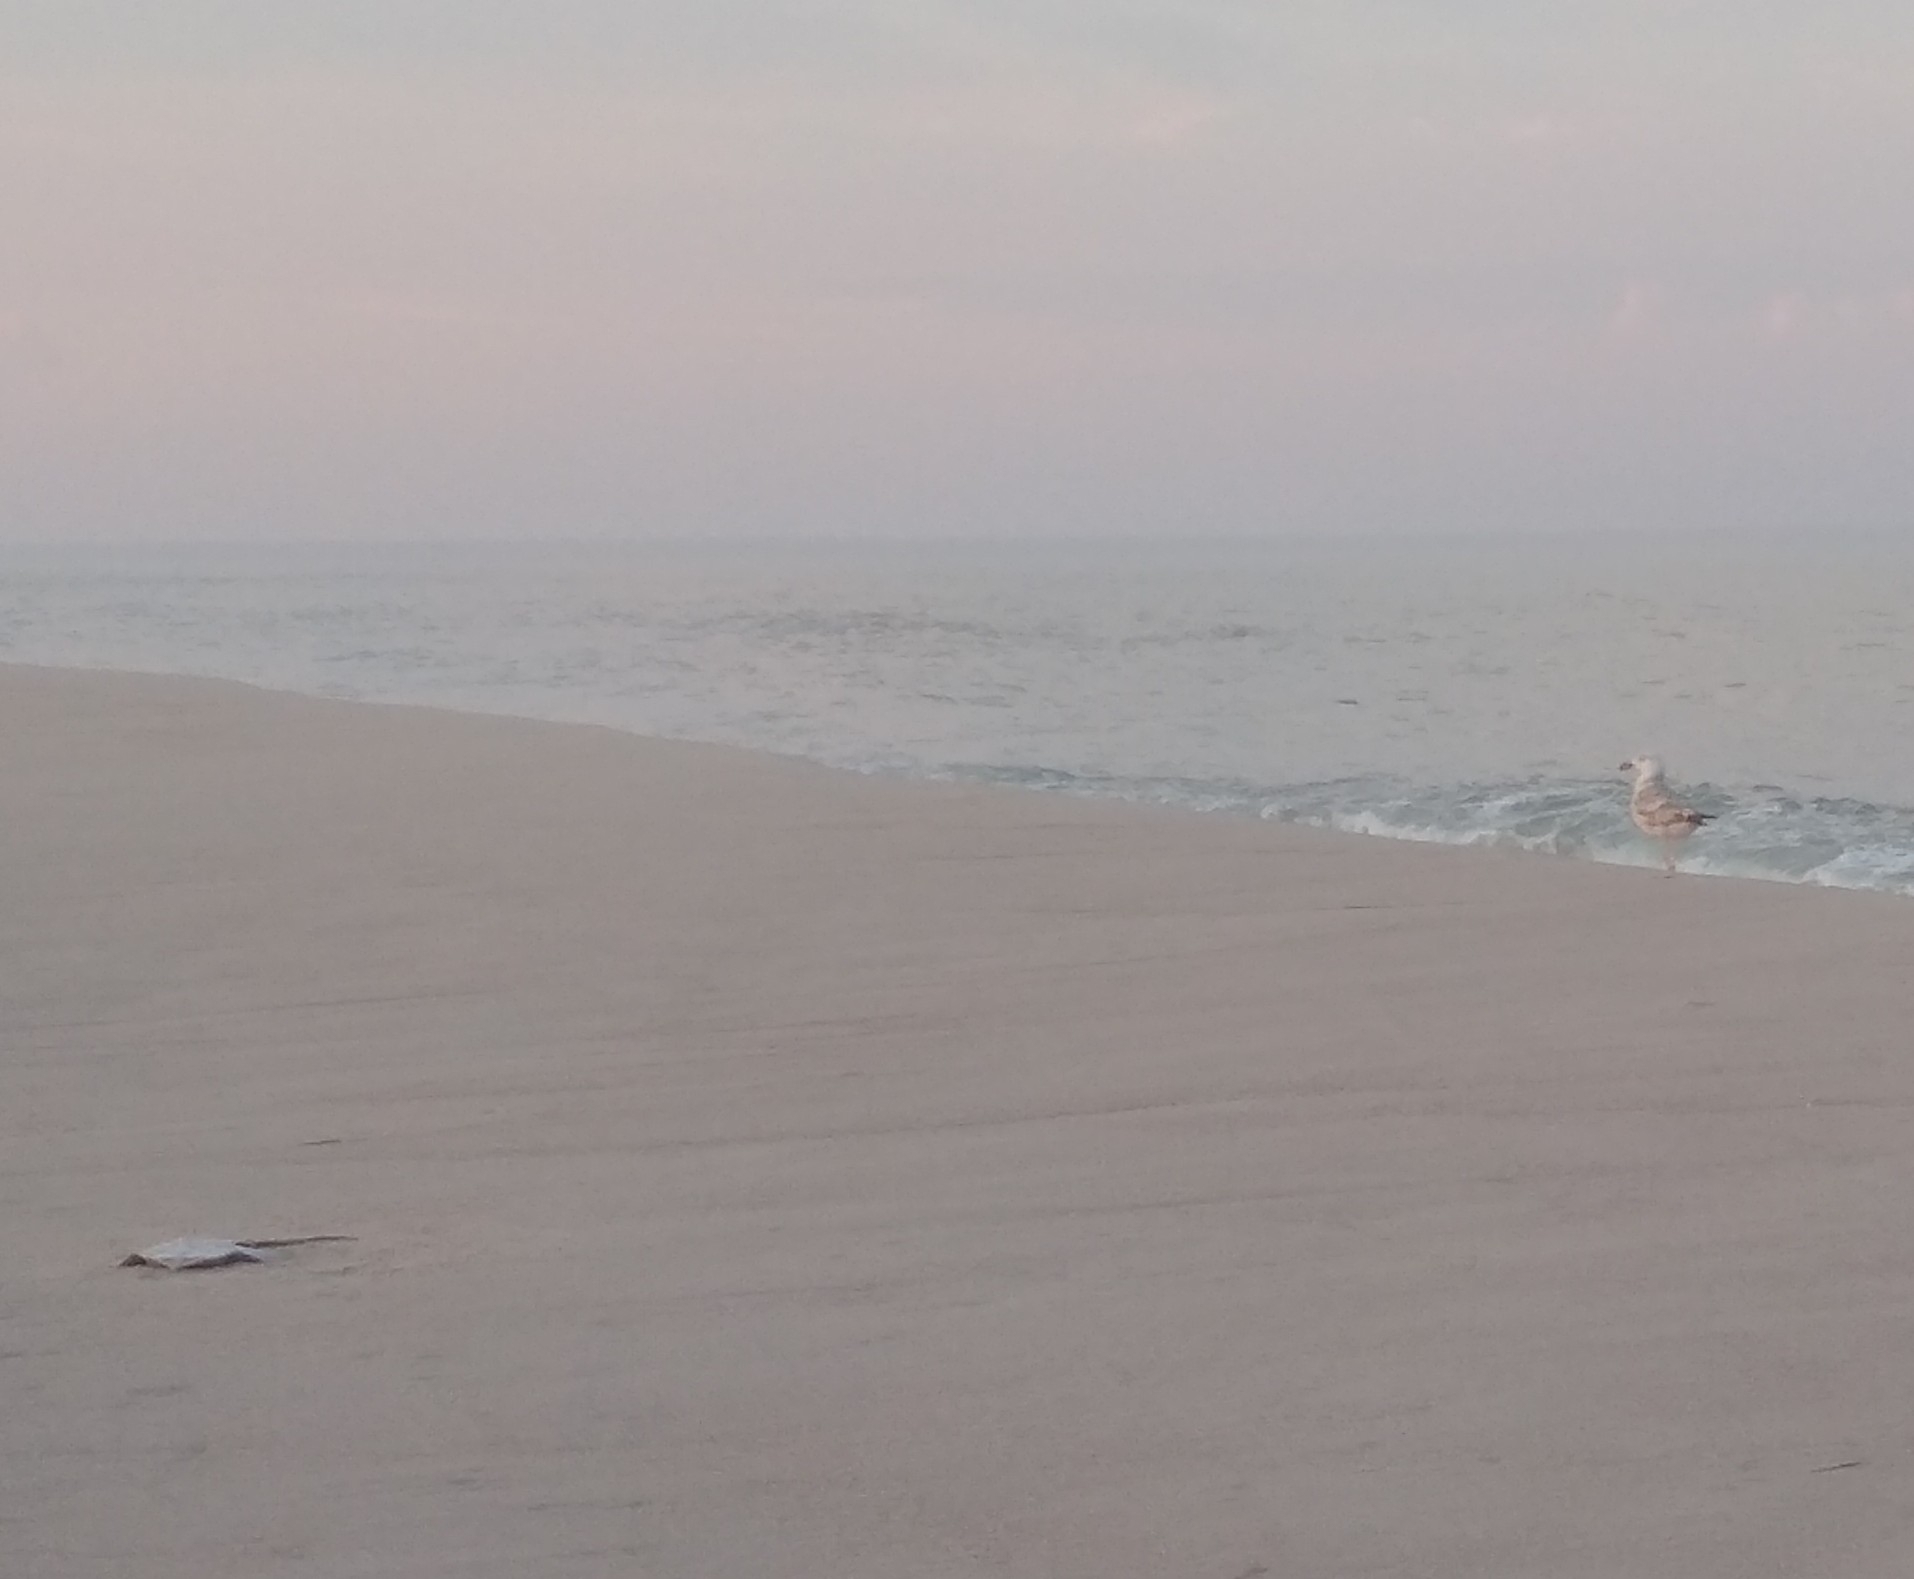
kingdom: Animalia
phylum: Chordata
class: Elasmobranchii
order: Rajiformes
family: Rajidae
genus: Raja
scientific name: Raja eglanteria
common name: Clearnose skate
